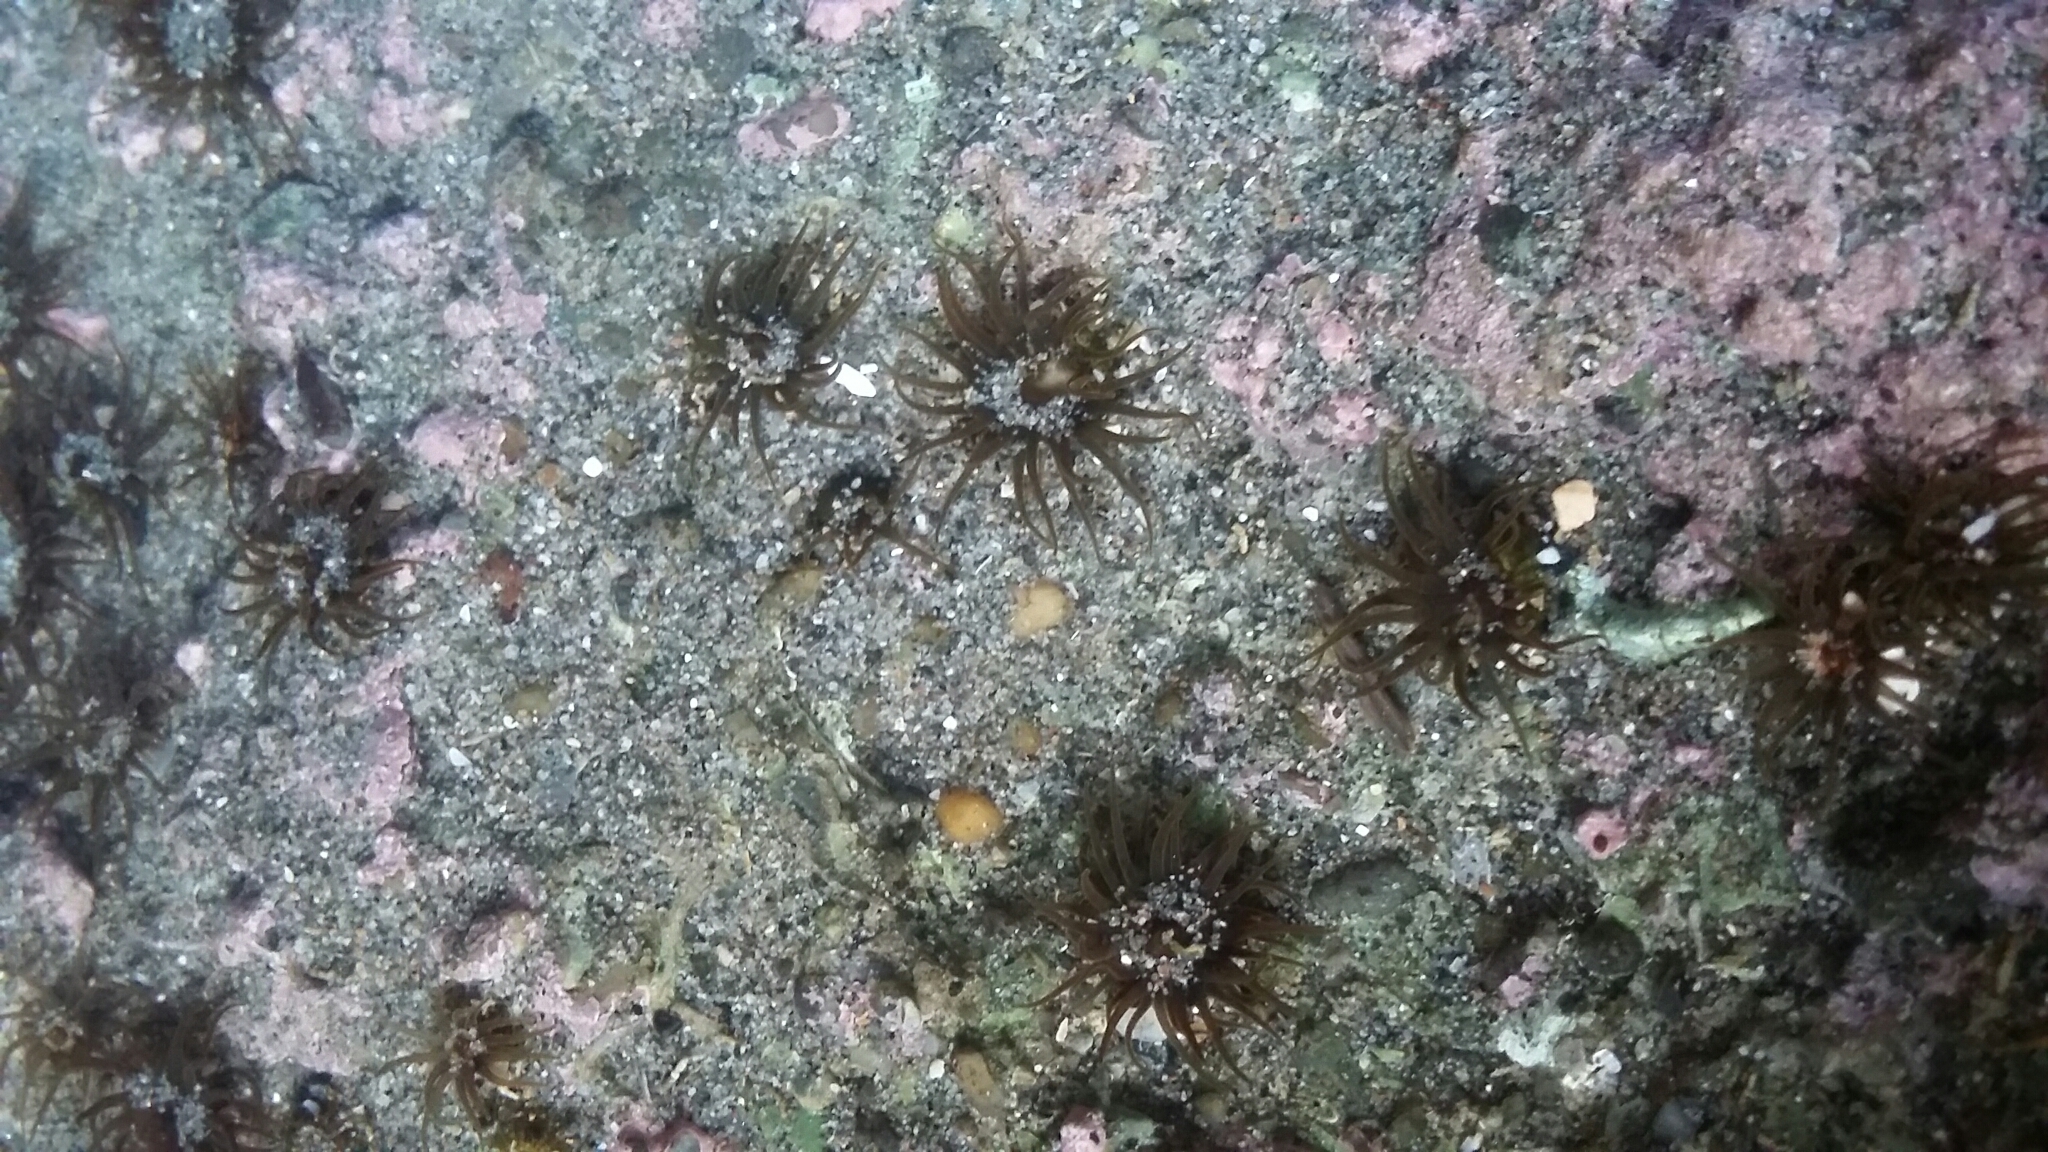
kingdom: Animalia
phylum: Cnidaria
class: Anthozoa
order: Actiniaria
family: Actiniidae
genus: Isactinia
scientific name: Isactinia olivacea
